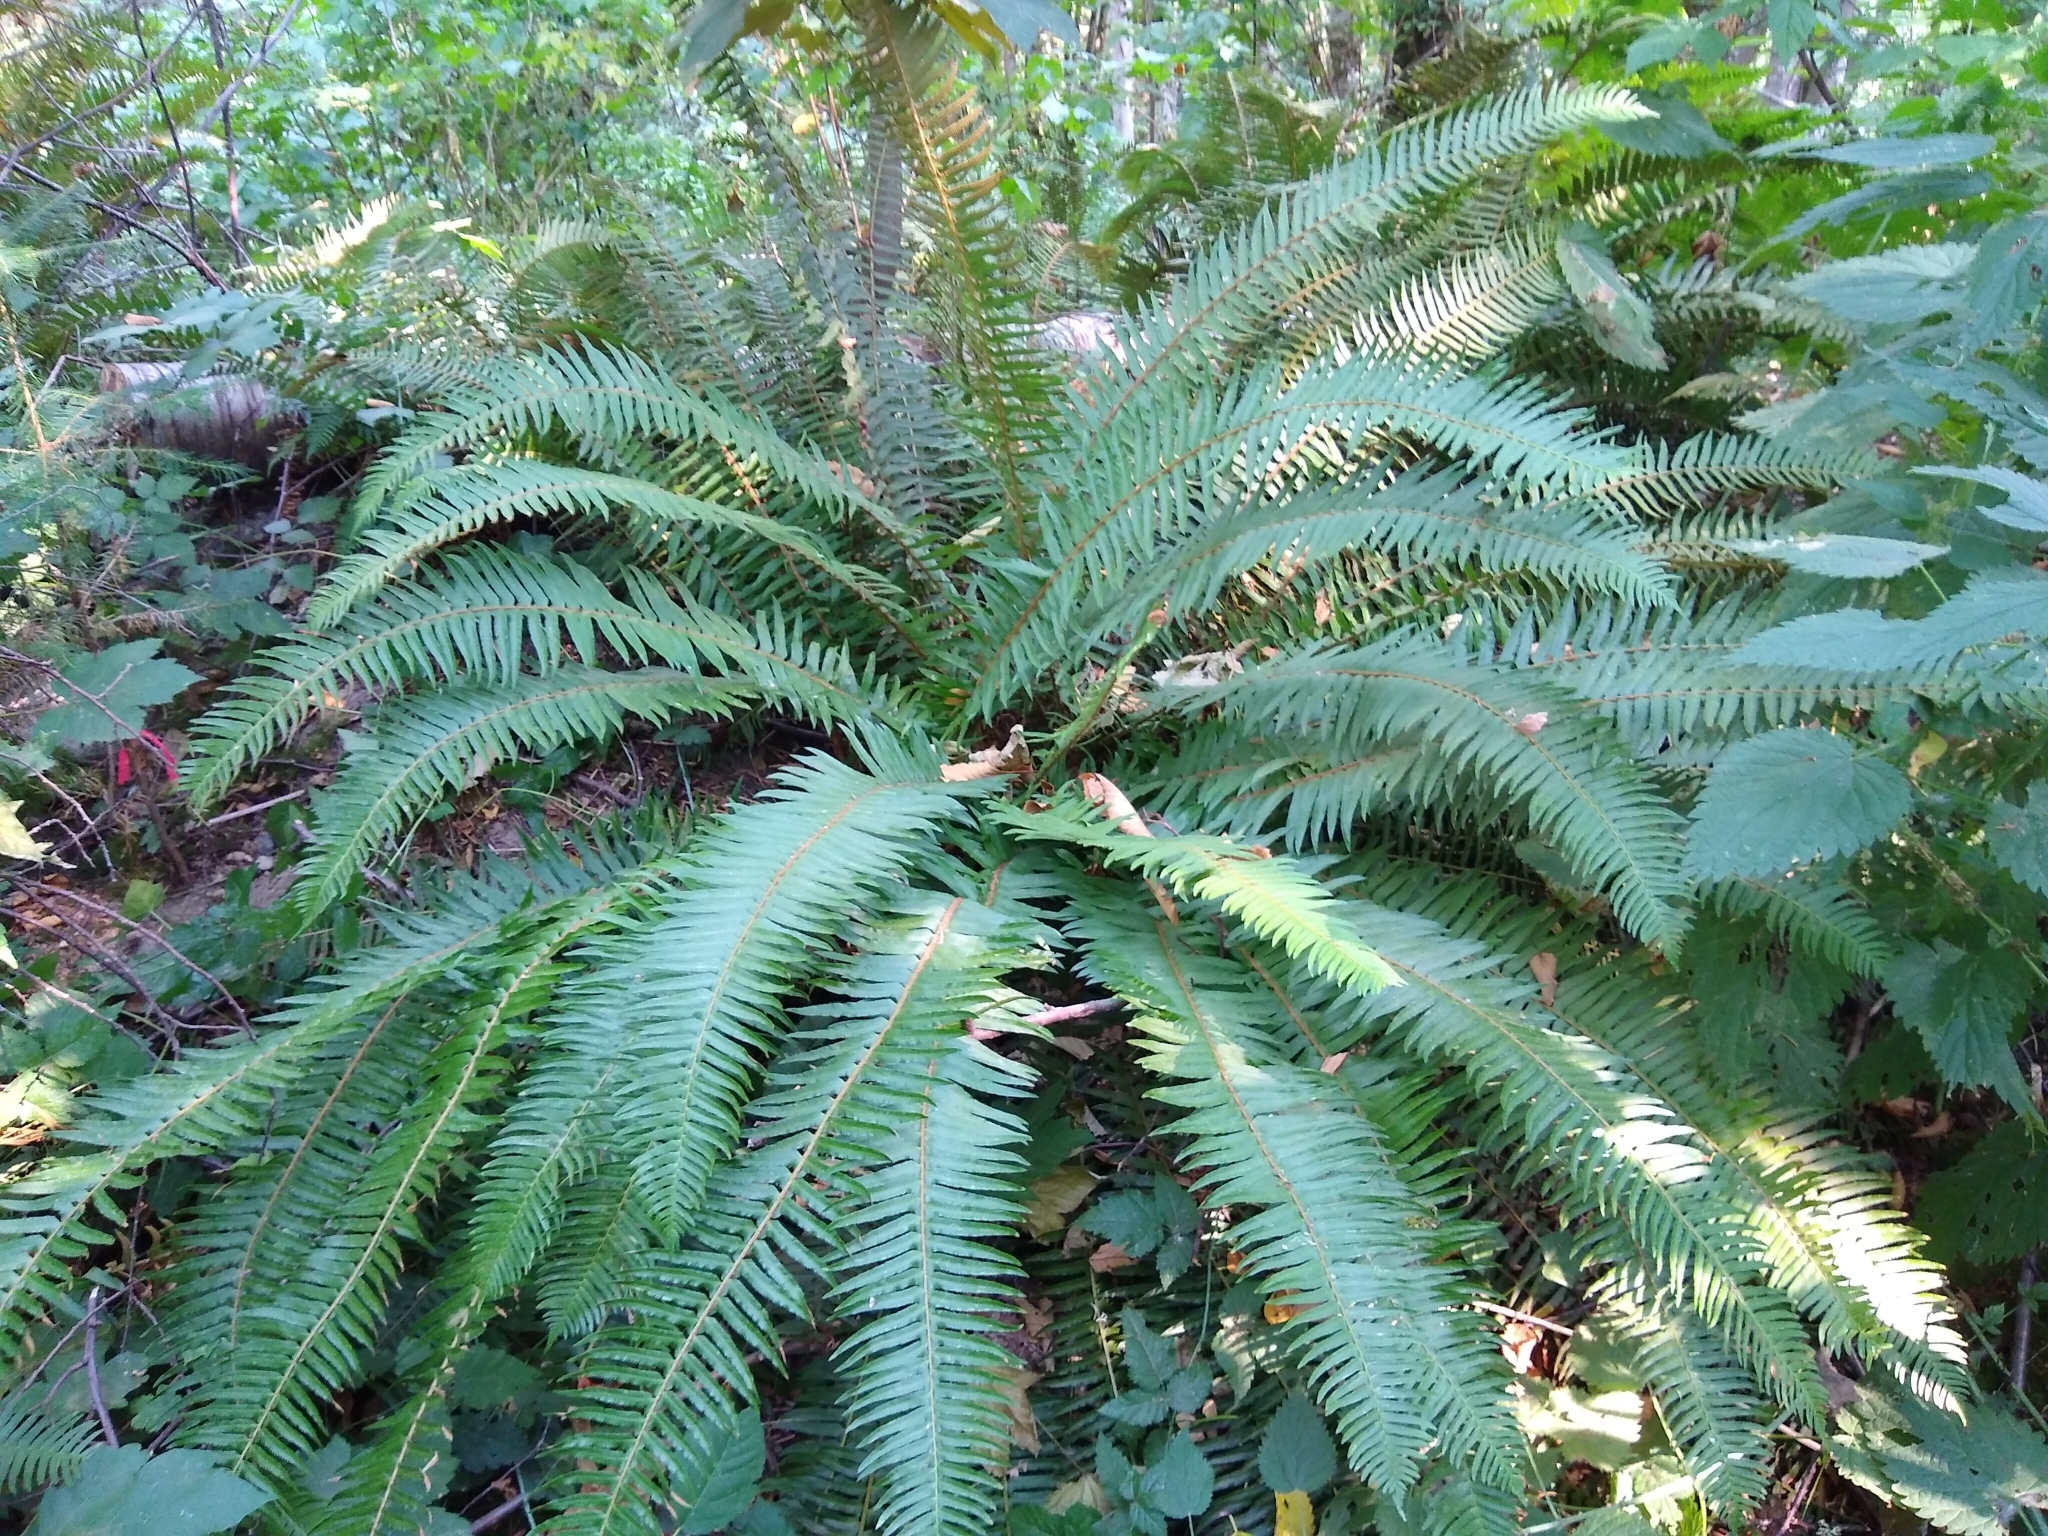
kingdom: Plantae
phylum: Tracheophyta
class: Polypodiopsida
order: Polypodiales
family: Dryopteridaceae
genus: Polystichum
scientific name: Polystichum munitum
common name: Western sword-fern
